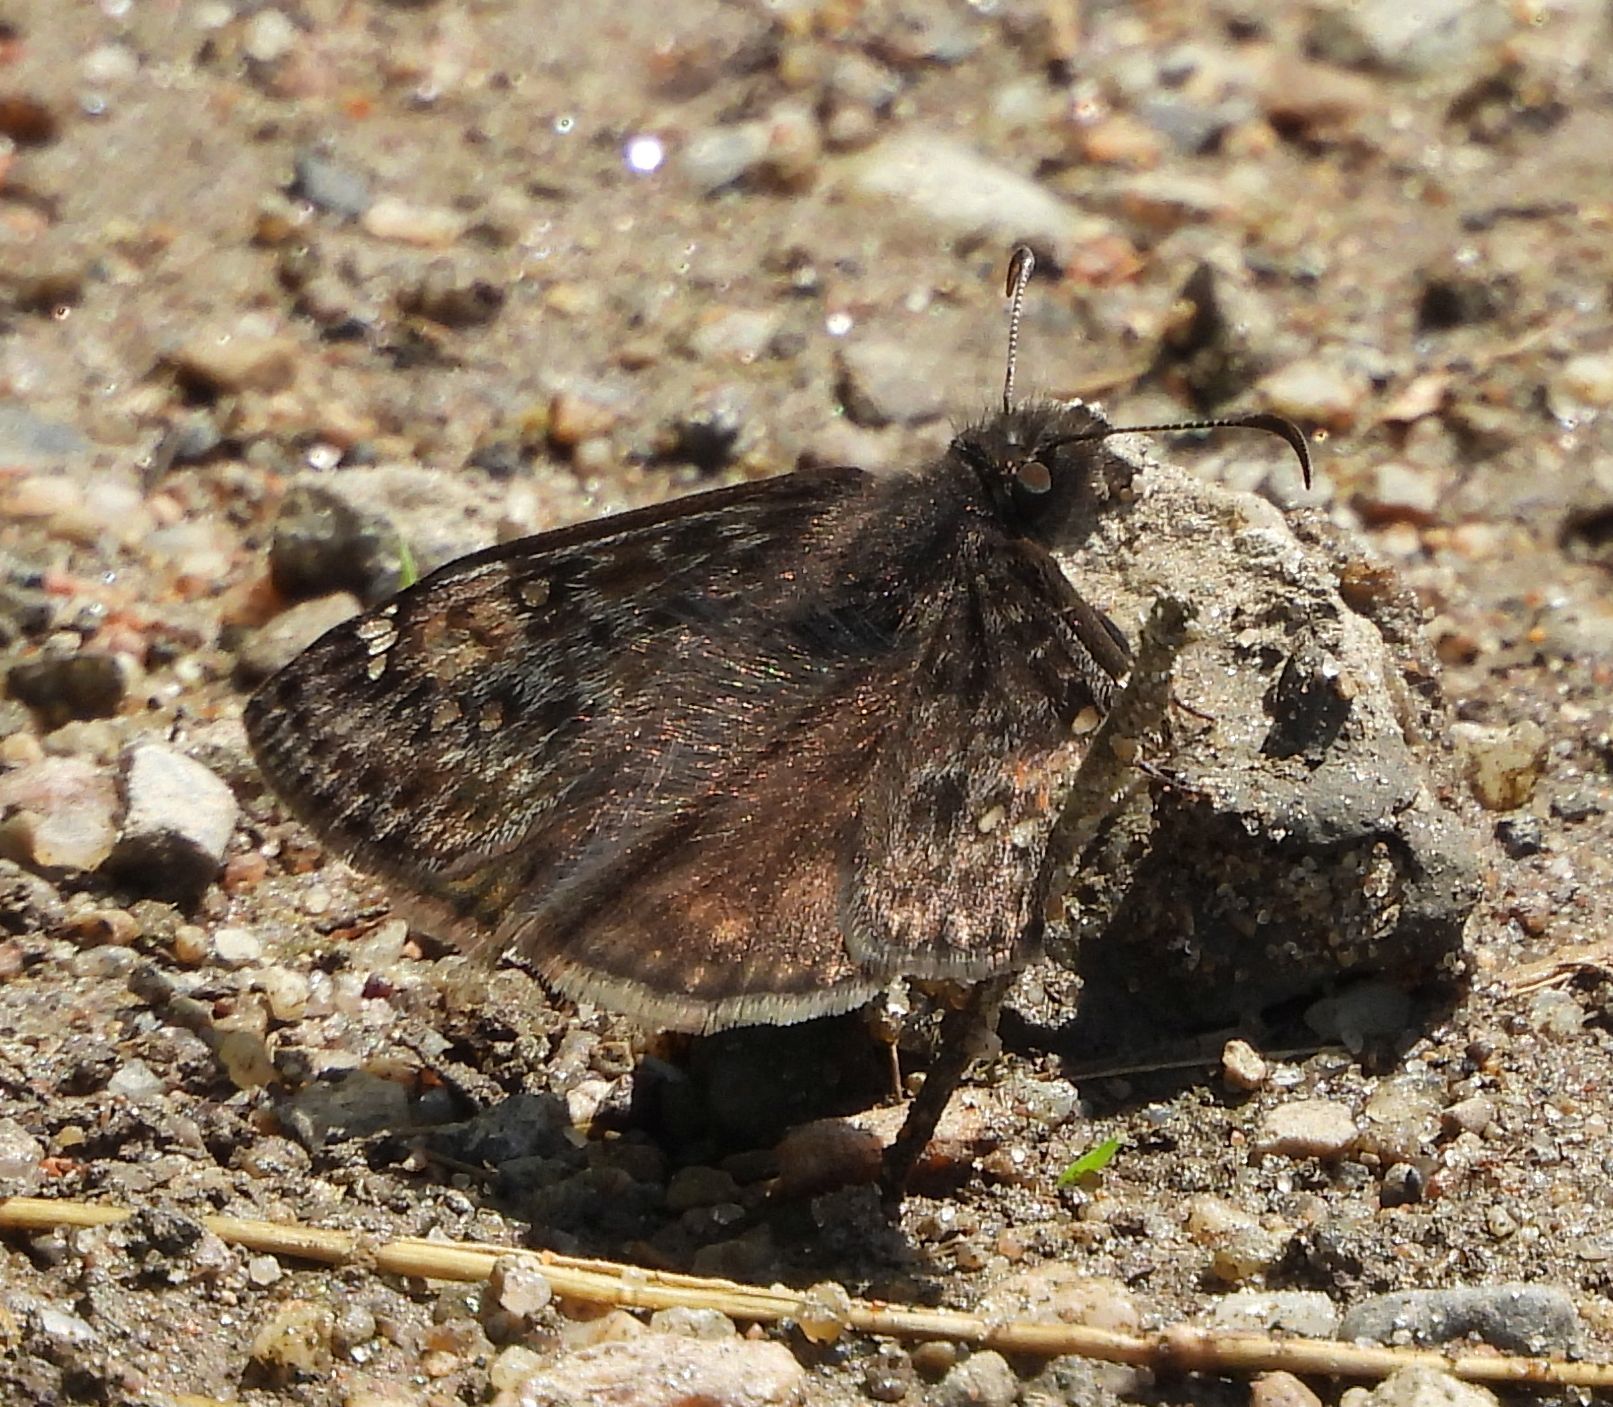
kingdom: Animalia
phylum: Arthropoda
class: Insecta
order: Lepidoptera
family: Hesperiidae
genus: Erynnis
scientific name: Erynnis juvenalis
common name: Juvenal's duskywing
